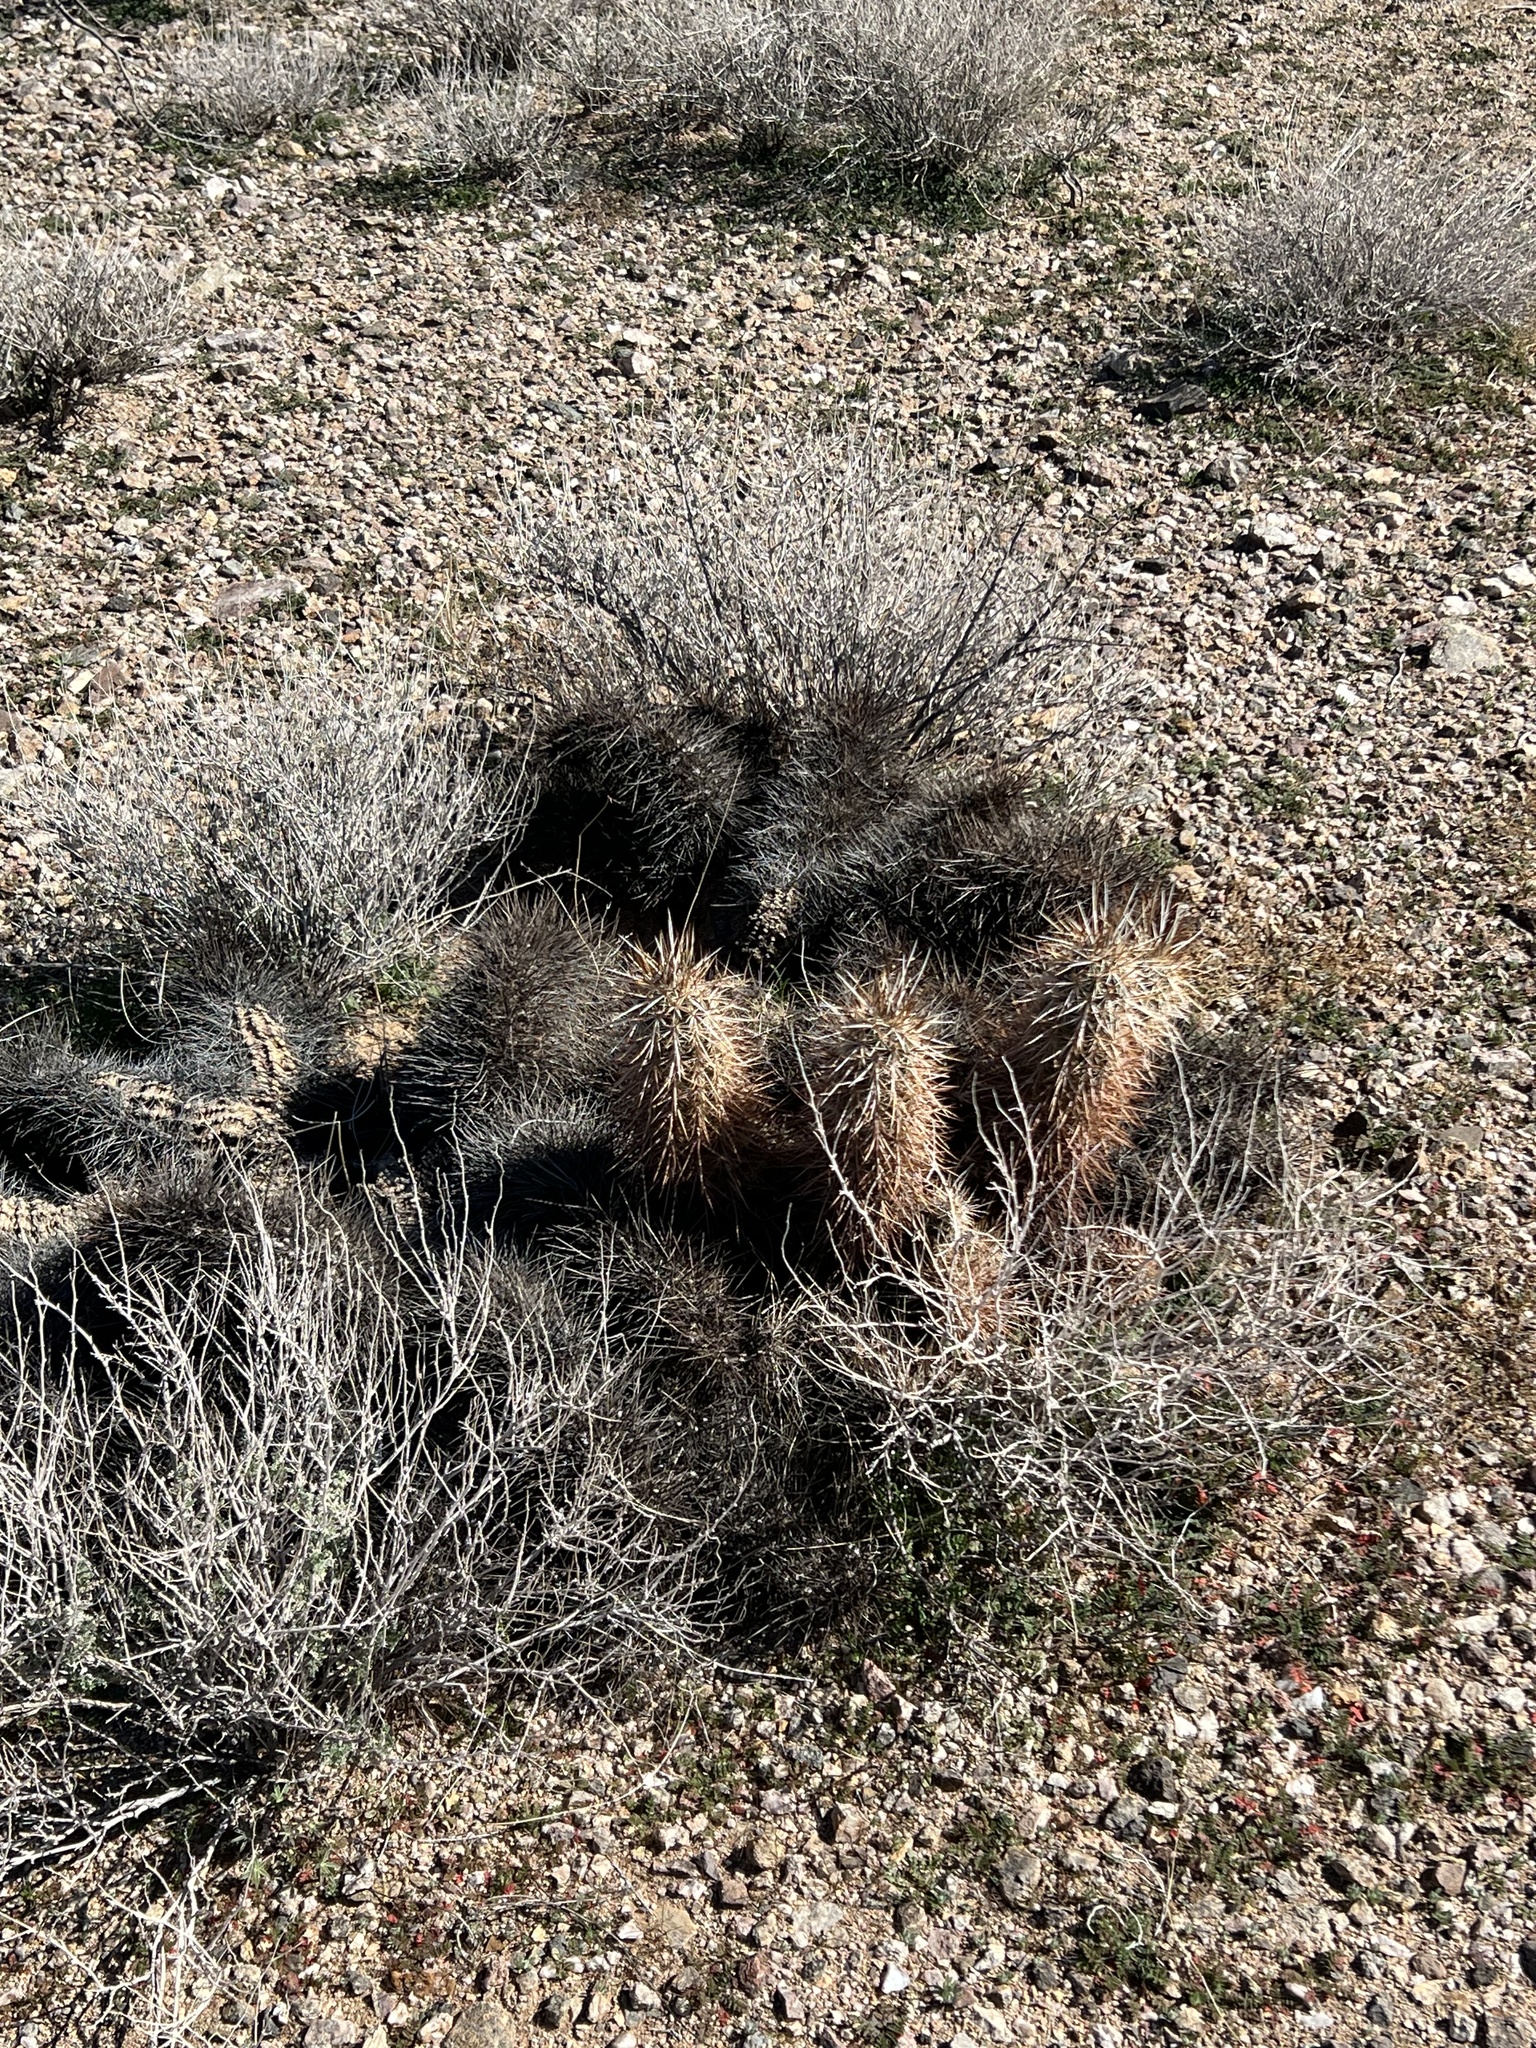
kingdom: Plantae
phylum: Tracheophyta
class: Magnoliopsida
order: Caryophyllales
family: Cactaceae
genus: Echinocereus
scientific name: Echinocereus engelmannii
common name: Engelmann's hedgehog cactus
